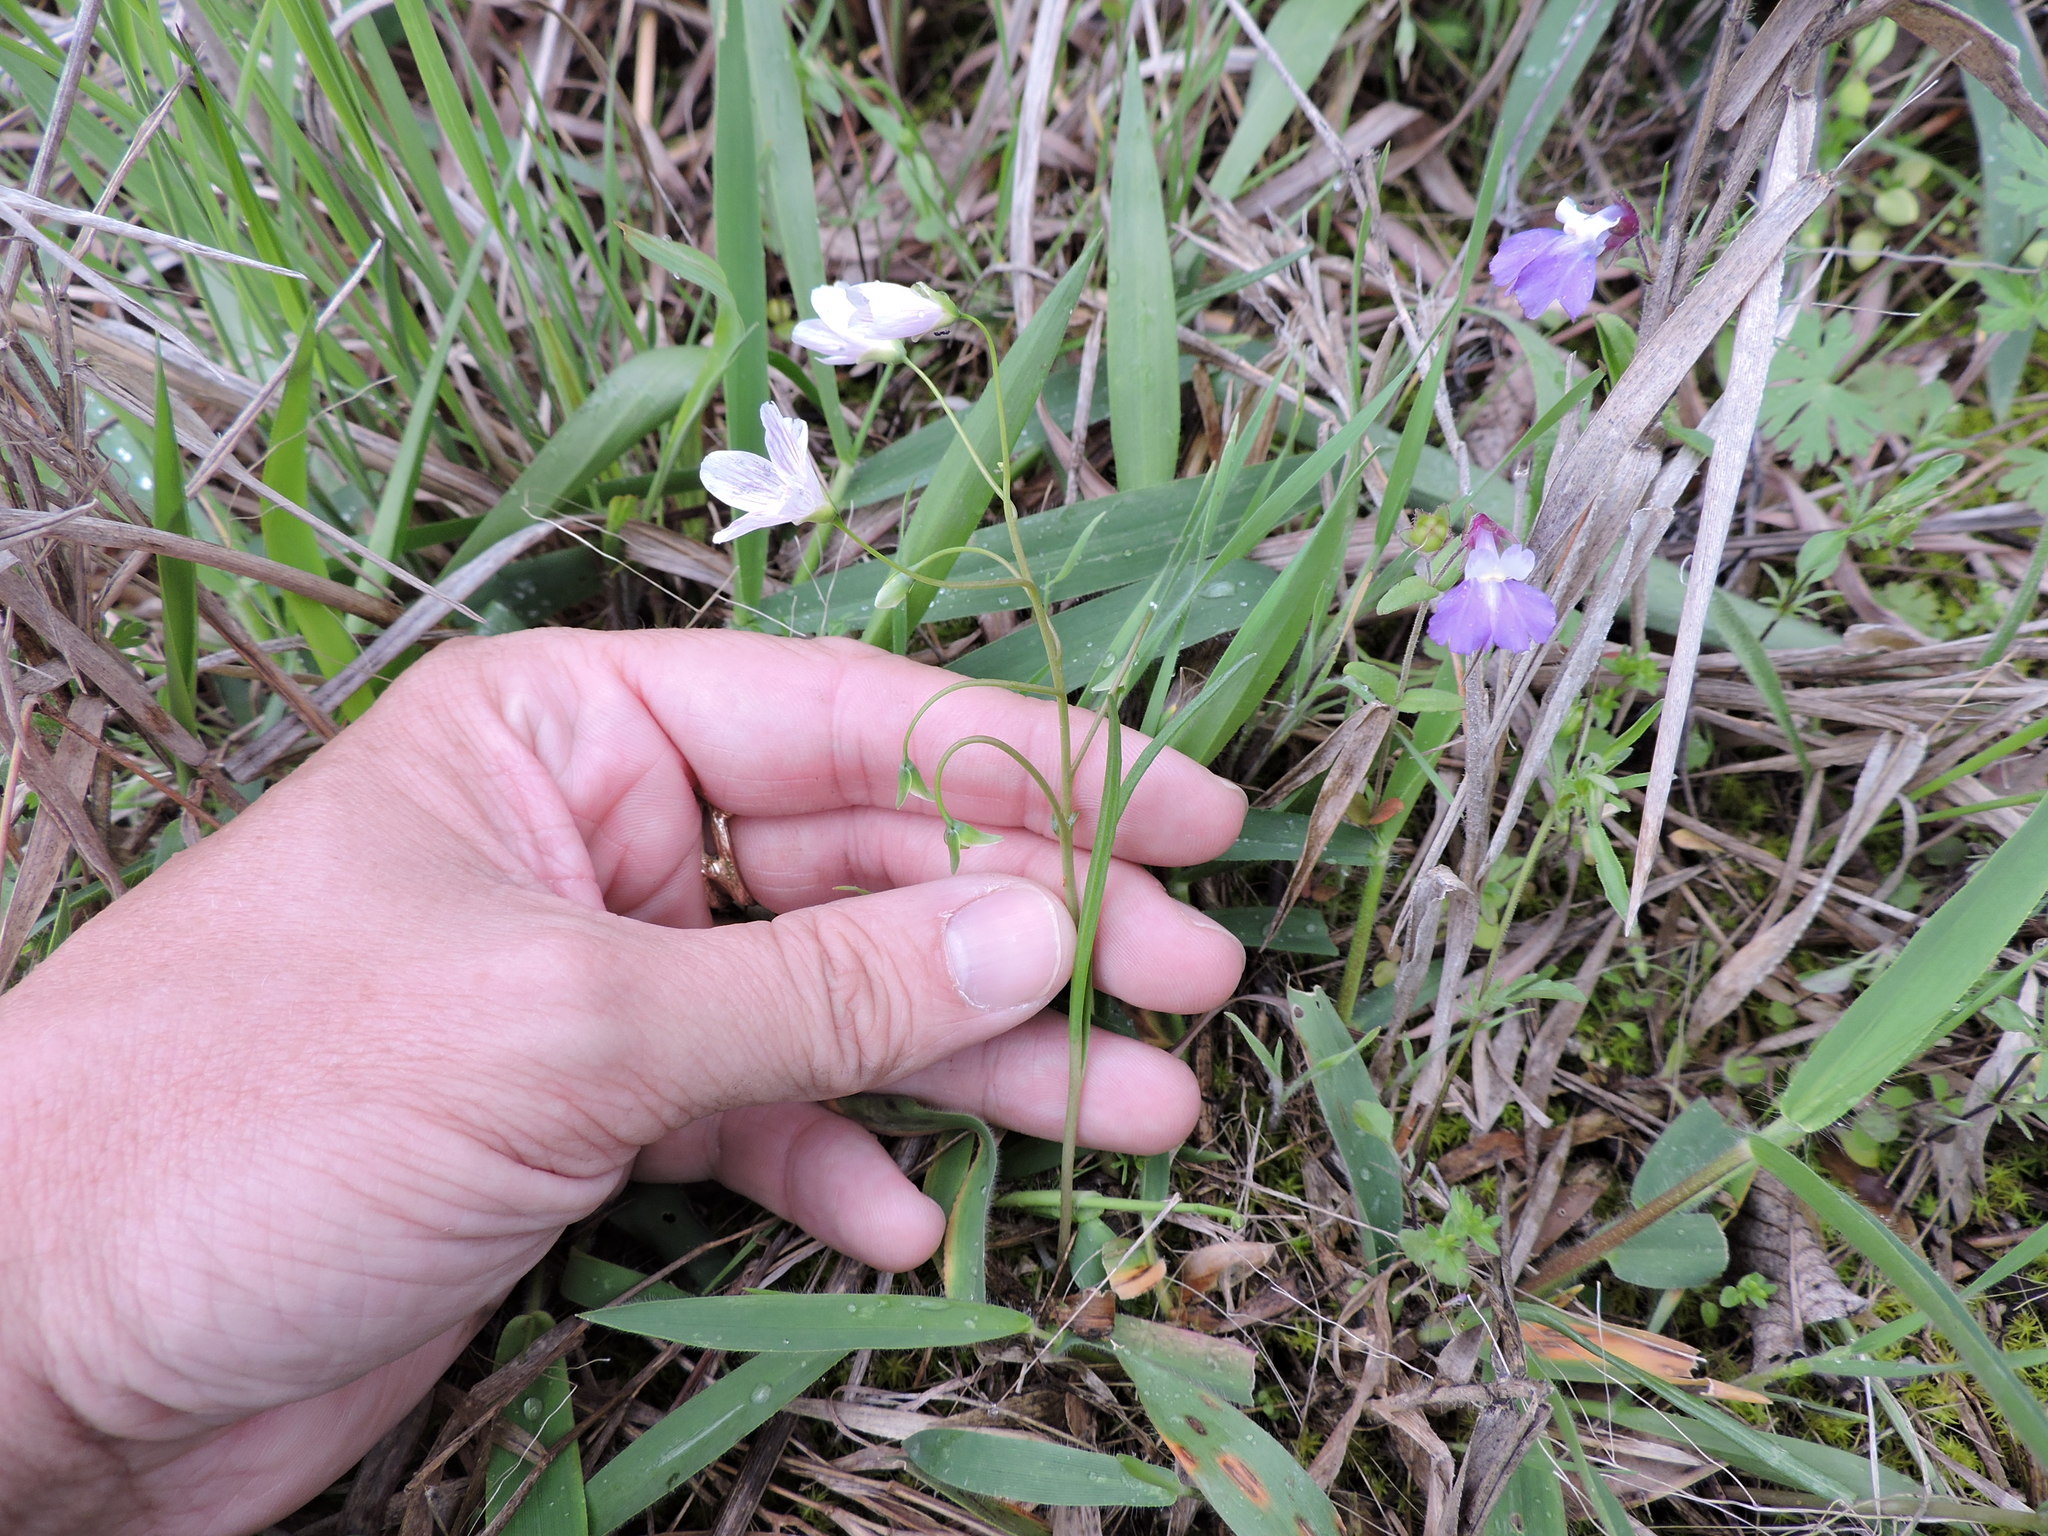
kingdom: Plantae
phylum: Tracheophyta
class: Magnoliopsida
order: Caryophyllales
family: Montiaceae
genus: Claytonia
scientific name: Claytonia virginica
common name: Virginia springbeauty
